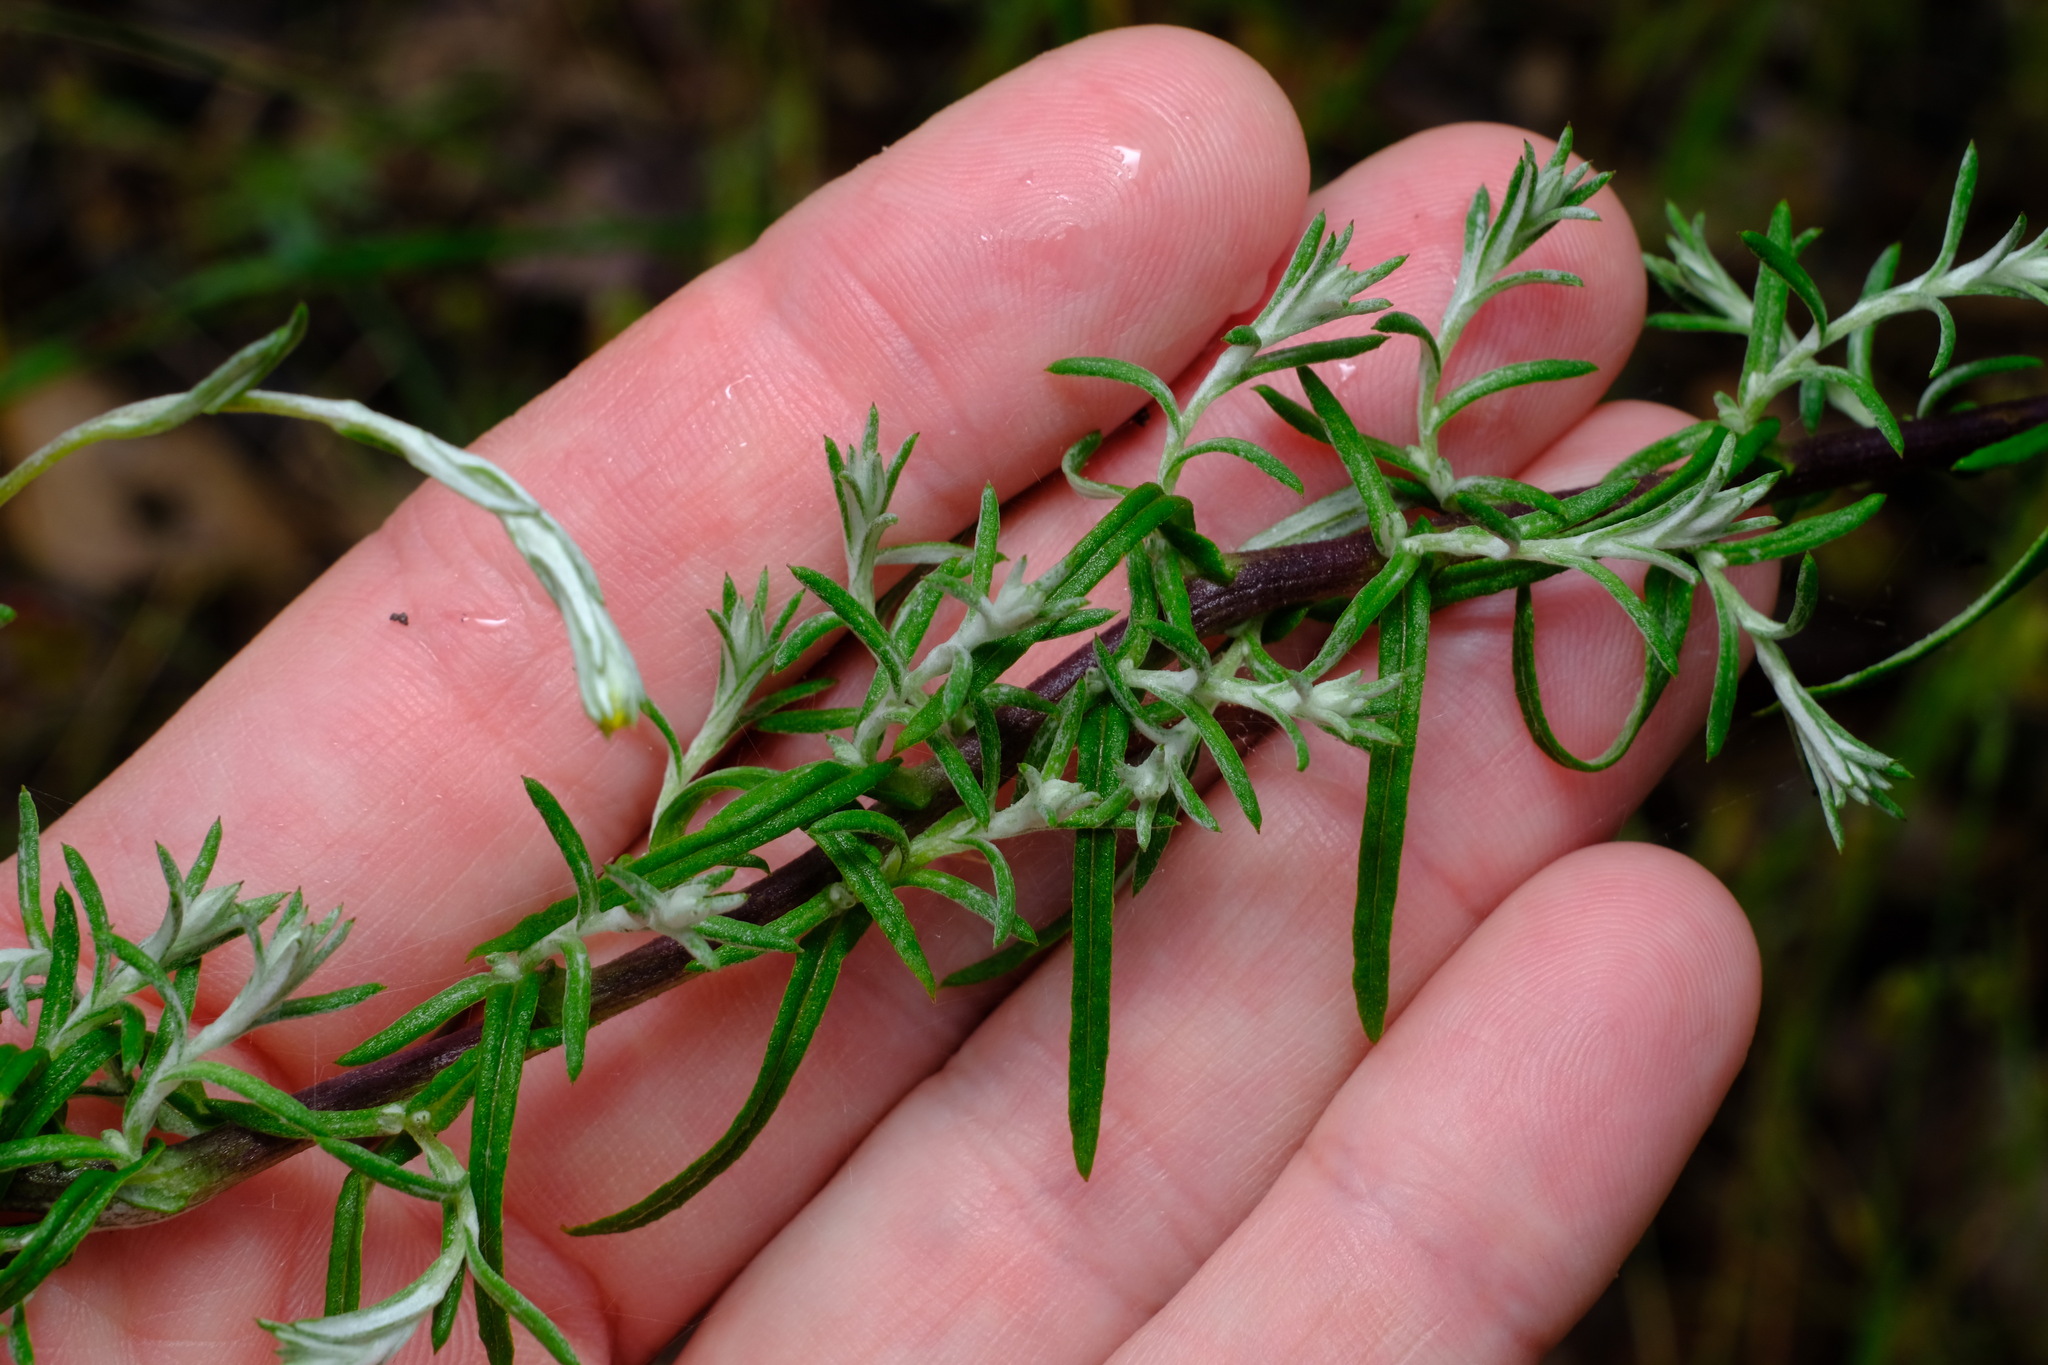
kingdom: Plantae
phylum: Tracheophyta
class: Magnoliopsida
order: Asterales
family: Asteraceae
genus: Chrysocephalum
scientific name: Chrysocephalum semipapposum
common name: Clustered everlasting
